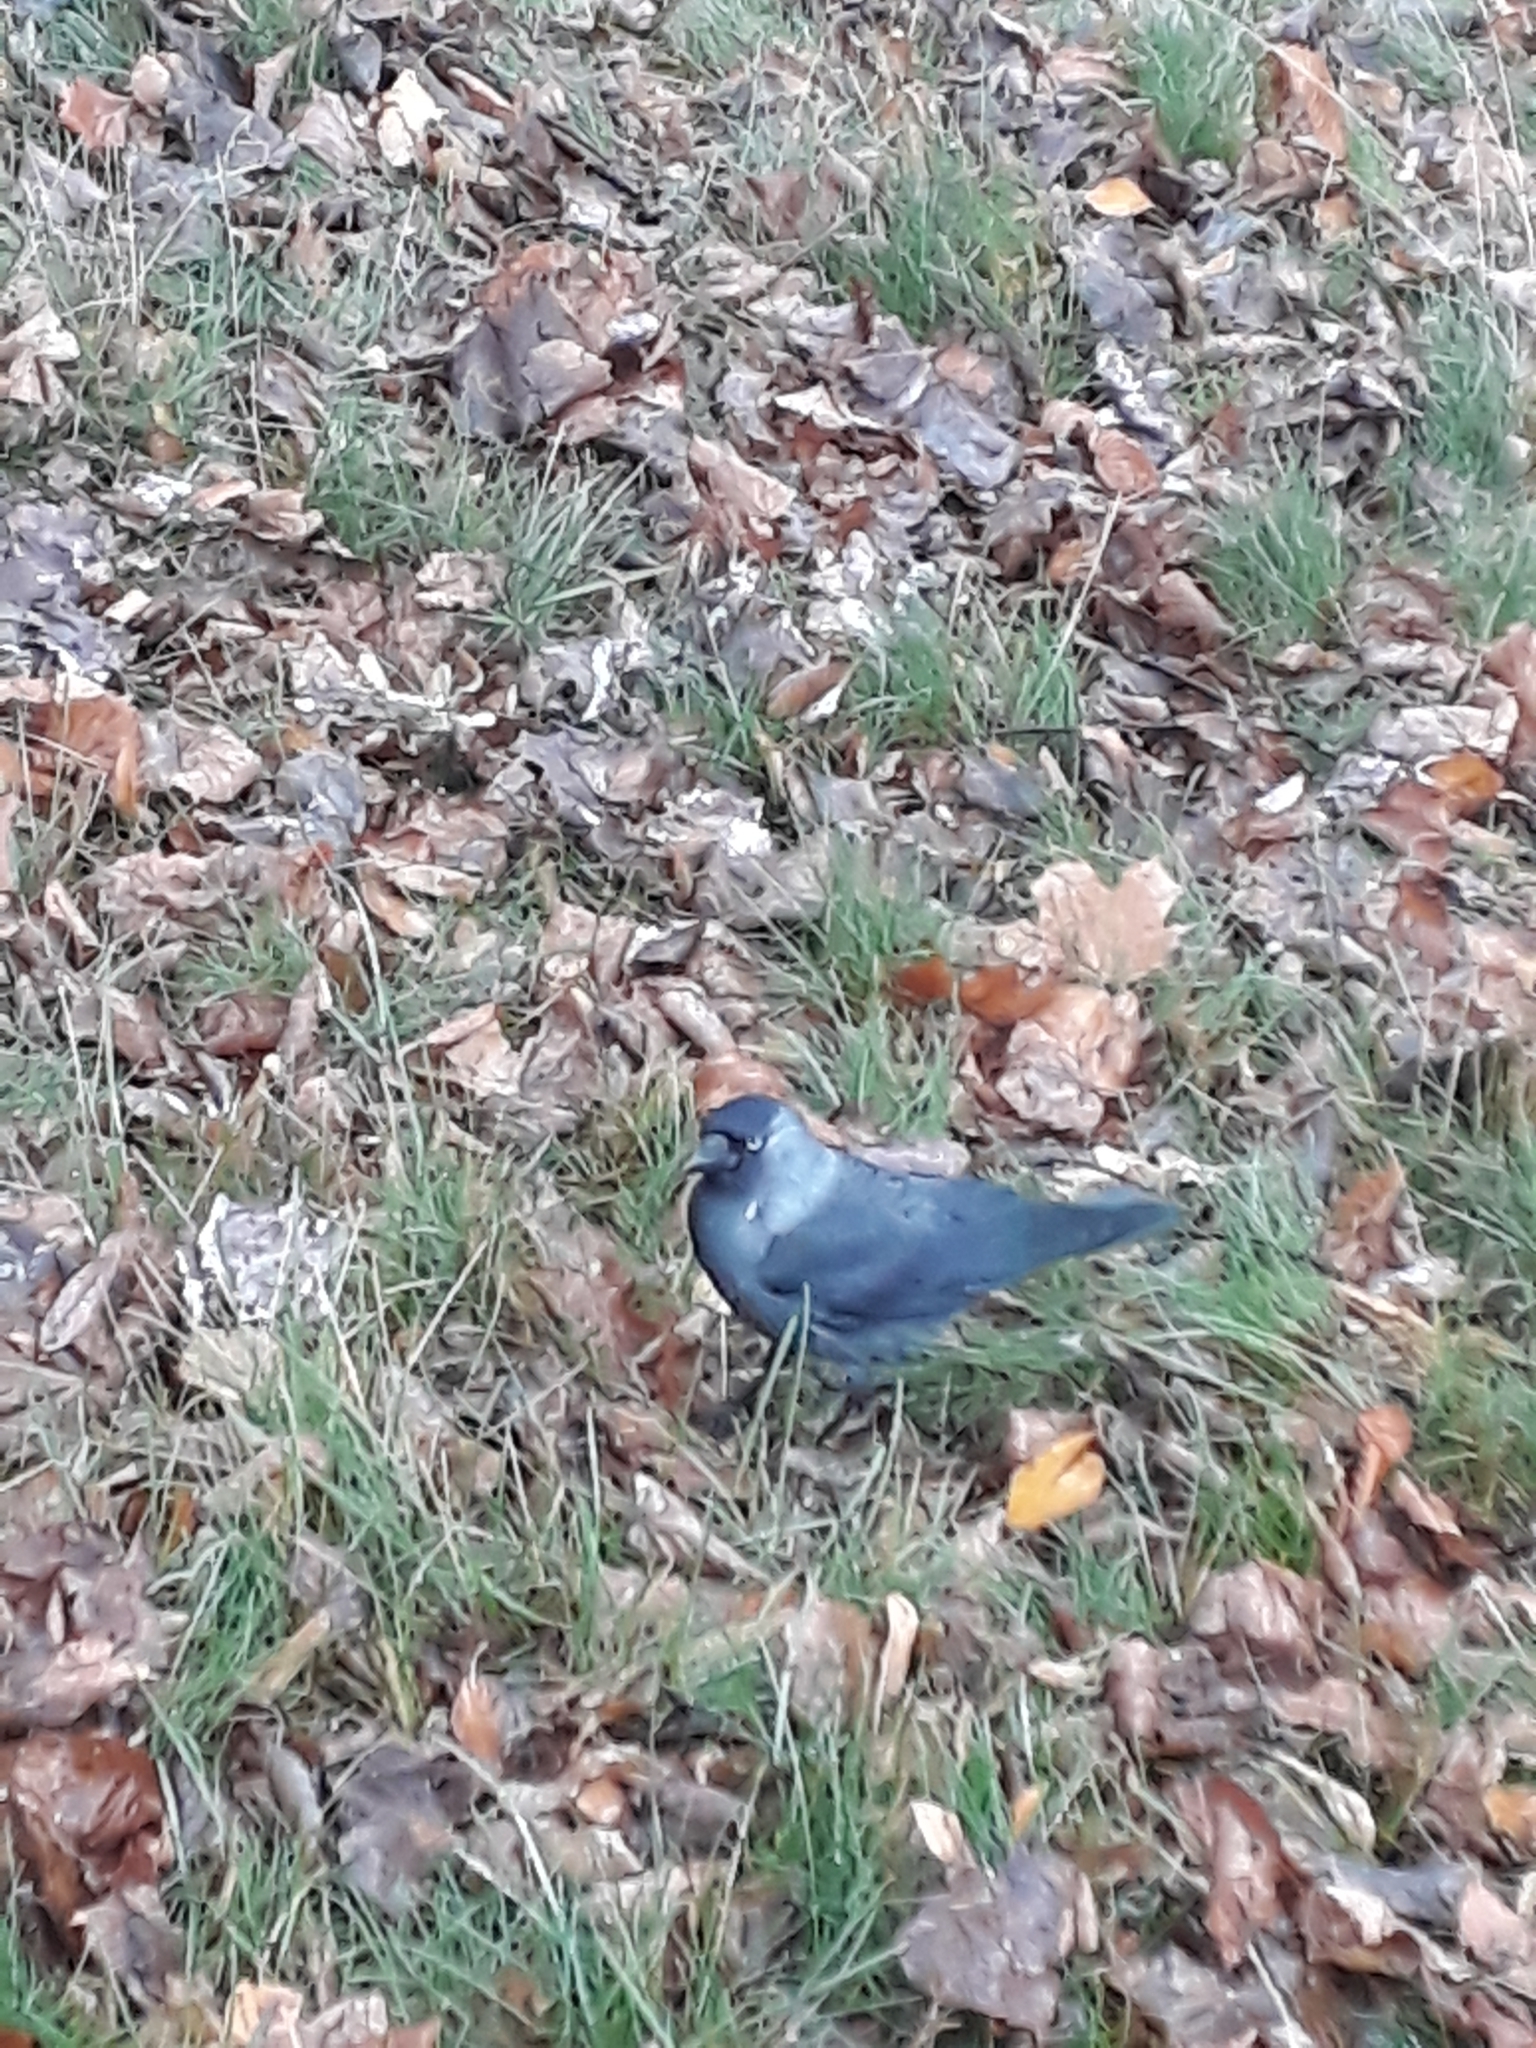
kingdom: Animalia
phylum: Chordata
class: Aves
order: Passeriformes
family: Corvidae
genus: Coloeus
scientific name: Coloeus monedula
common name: Western jackdaw
